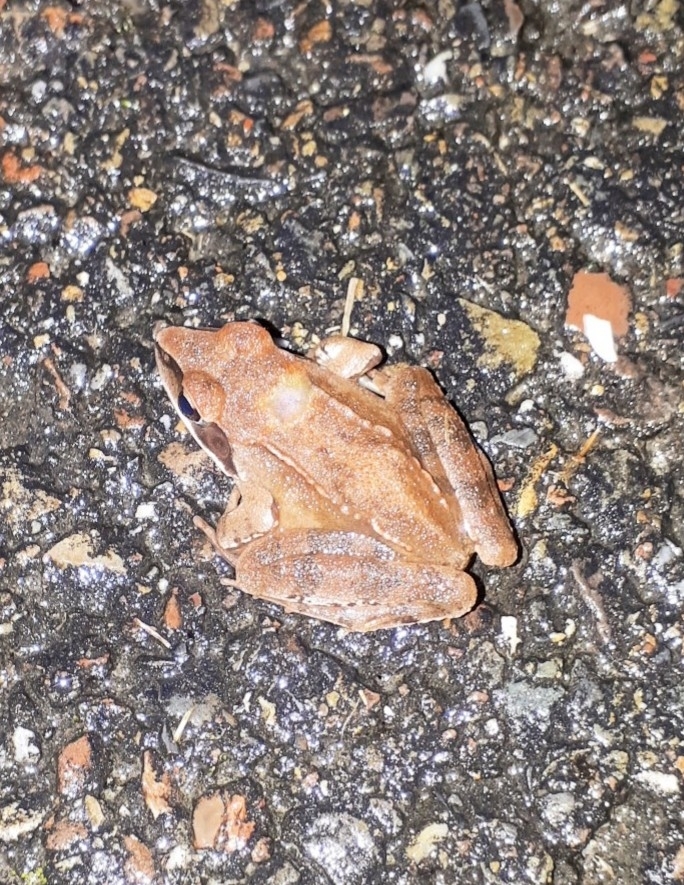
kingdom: Animalia
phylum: Chordata
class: Amphibia
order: Anura
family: Ranidae
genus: Rana
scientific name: Rana dalmatina
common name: Agile frog
